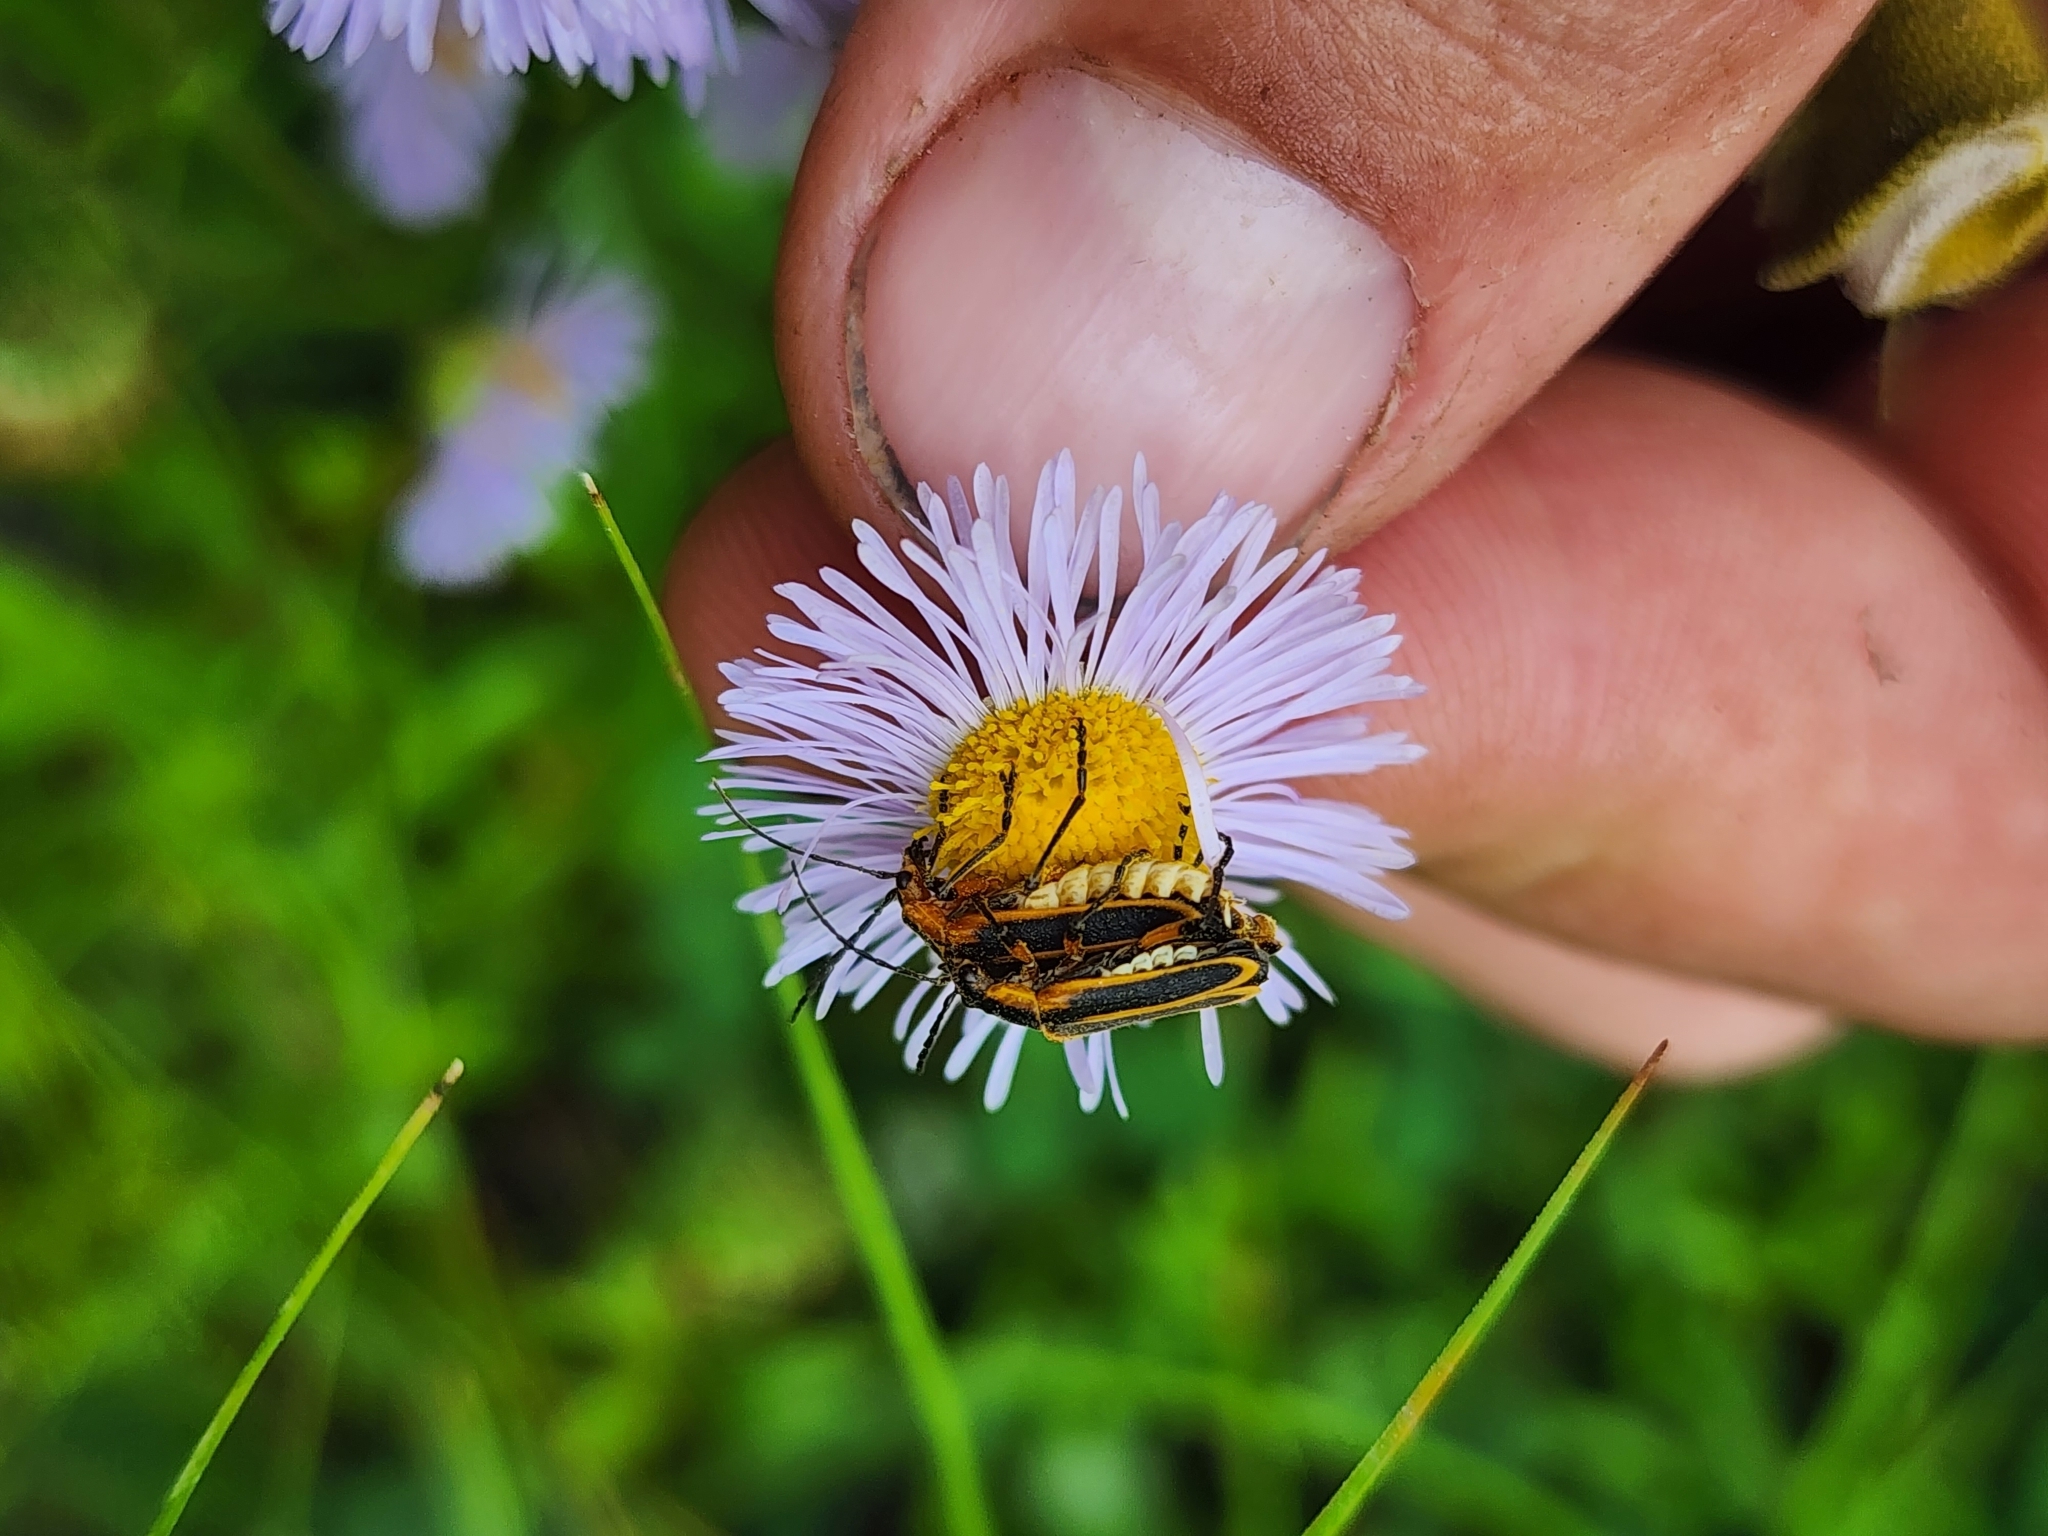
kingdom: Animalia
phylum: Arthropoda
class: Insecta
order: Coleoptera
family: Cantharidae
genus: Chauliognathus
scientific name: Chauliognathus marginatus
